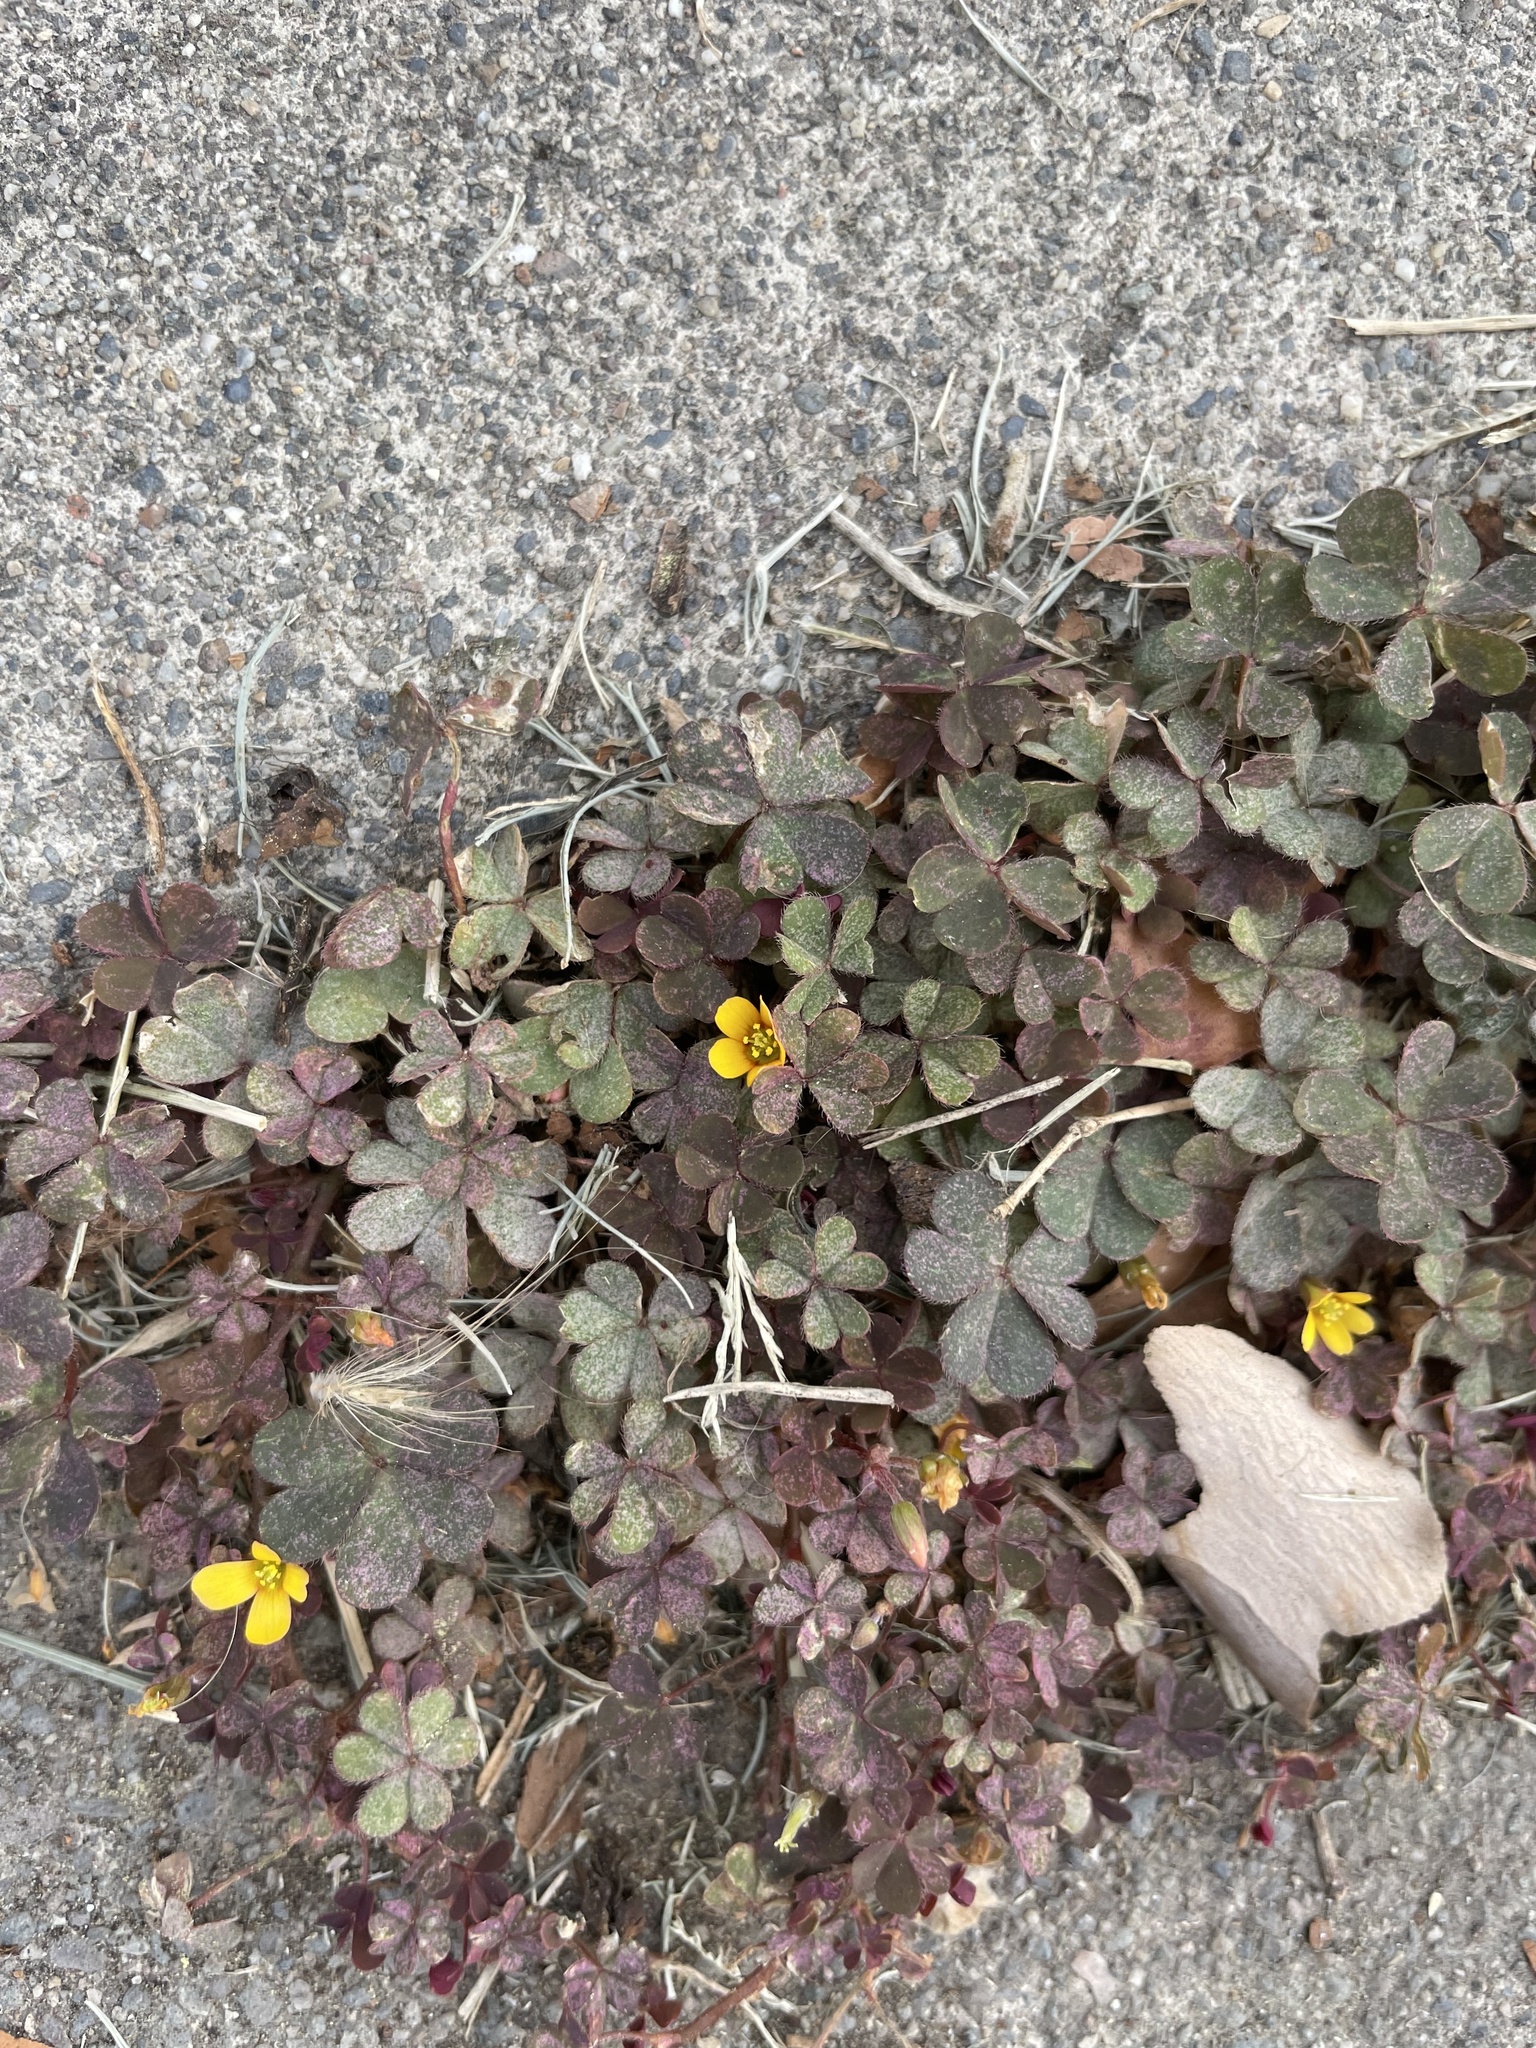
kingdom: Plantae
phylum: Tracheophyta
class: Magnoliopsida
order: Oxalidales
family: Oxalidaceae
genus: Oxalis
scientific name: Oxalis corniculata
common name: Procumbent yellow-sorrel
